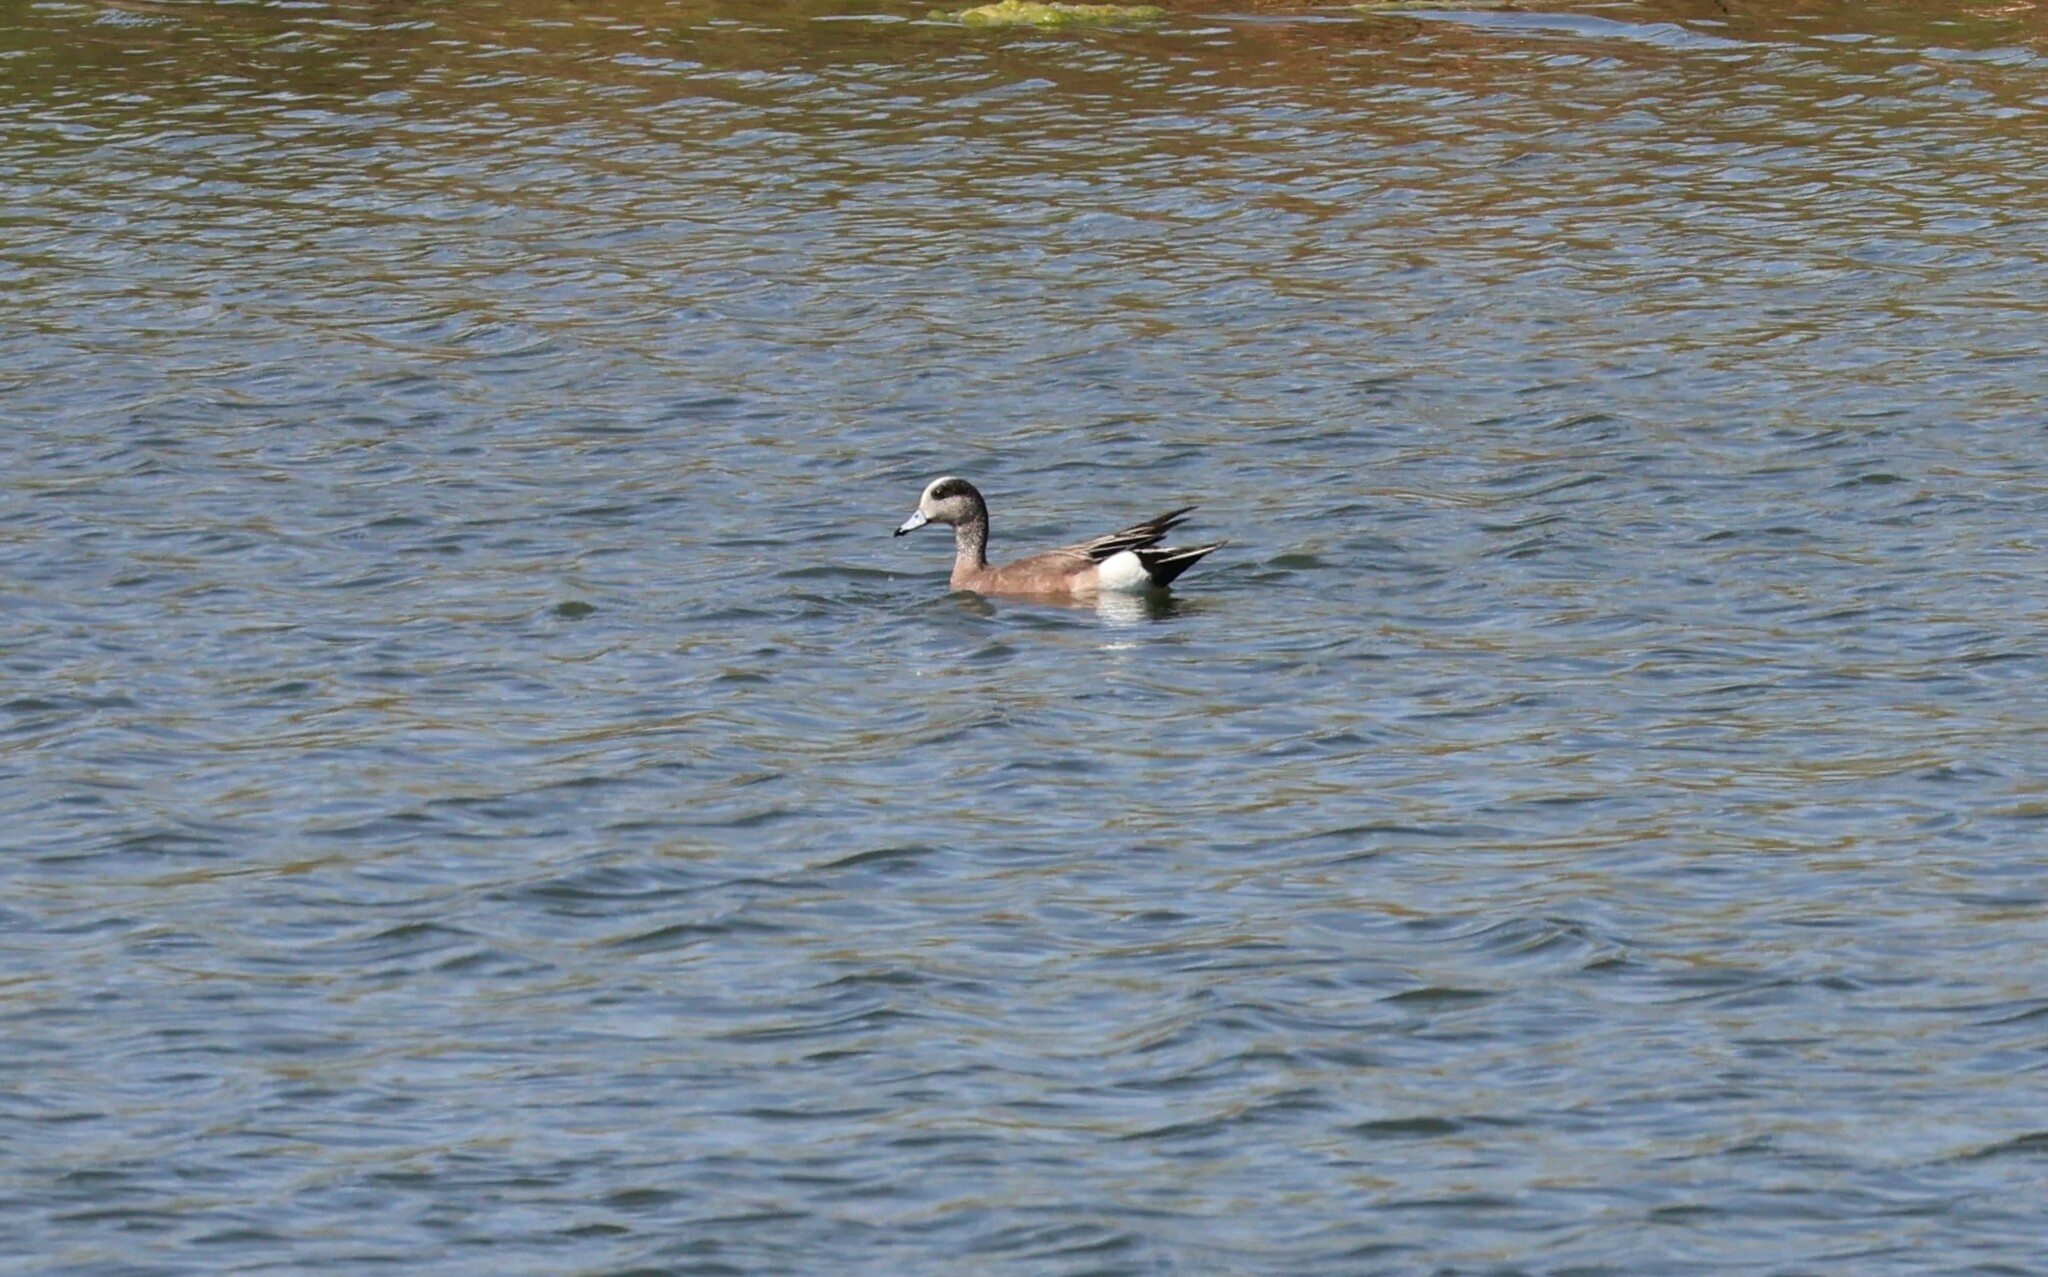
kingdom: Animalia
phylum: Chordata
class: Aves
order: Anseriformes
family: Anatidae
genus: Mareca
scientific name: Mareca americana
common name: American wigeon
